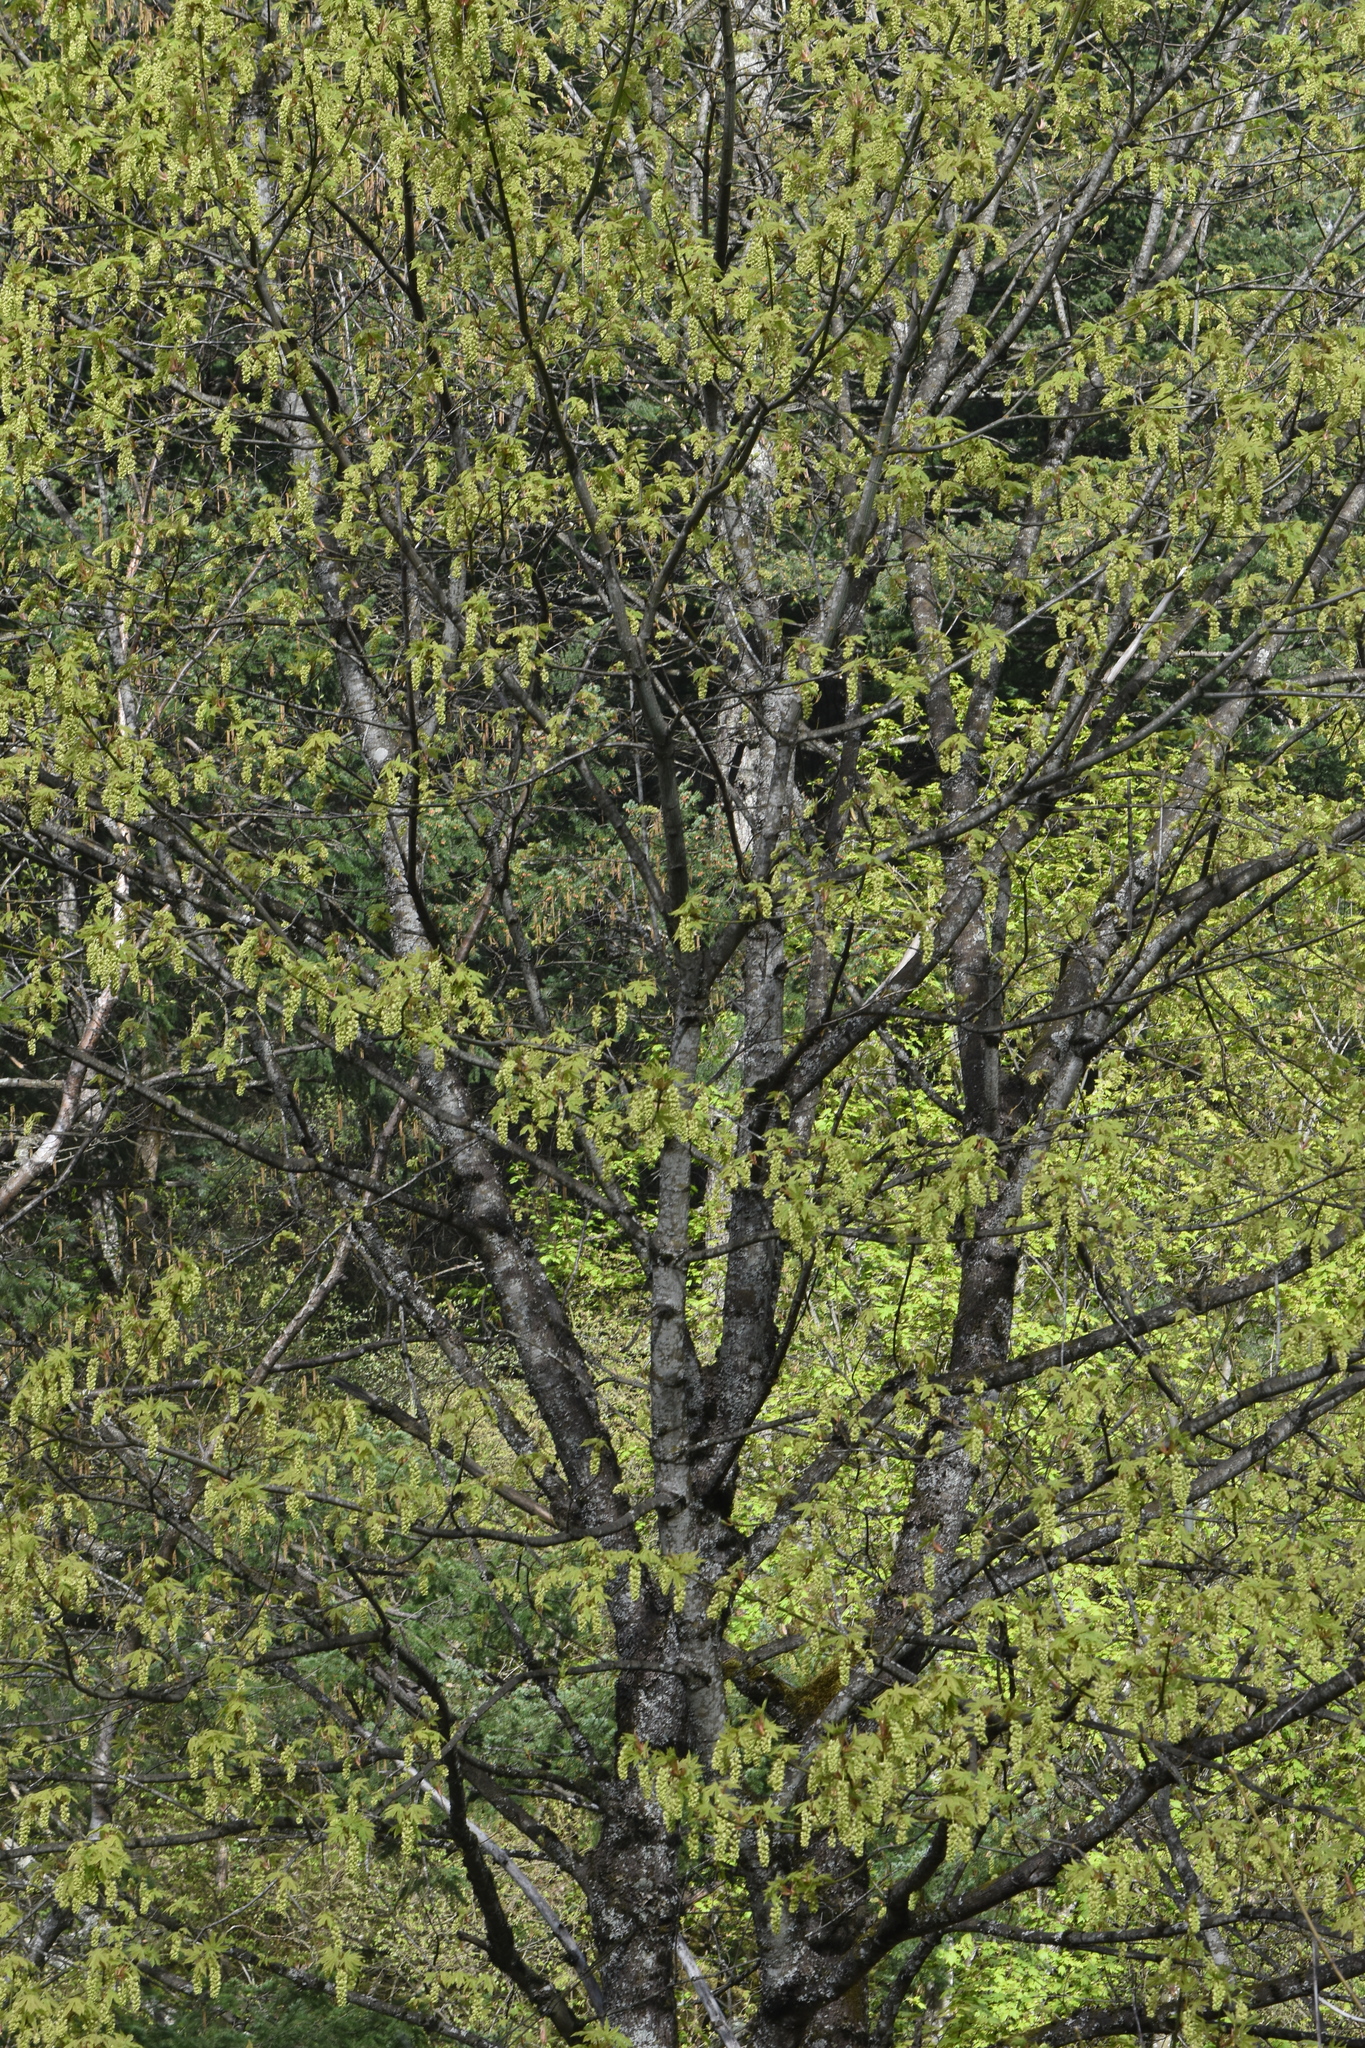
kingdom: Plantae
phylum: Tracheophyta
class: Magnoliopsida
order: Sapindales
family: Sapindaceae
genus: Acer
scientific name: Acer macrophyllum
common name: Oregon maple
